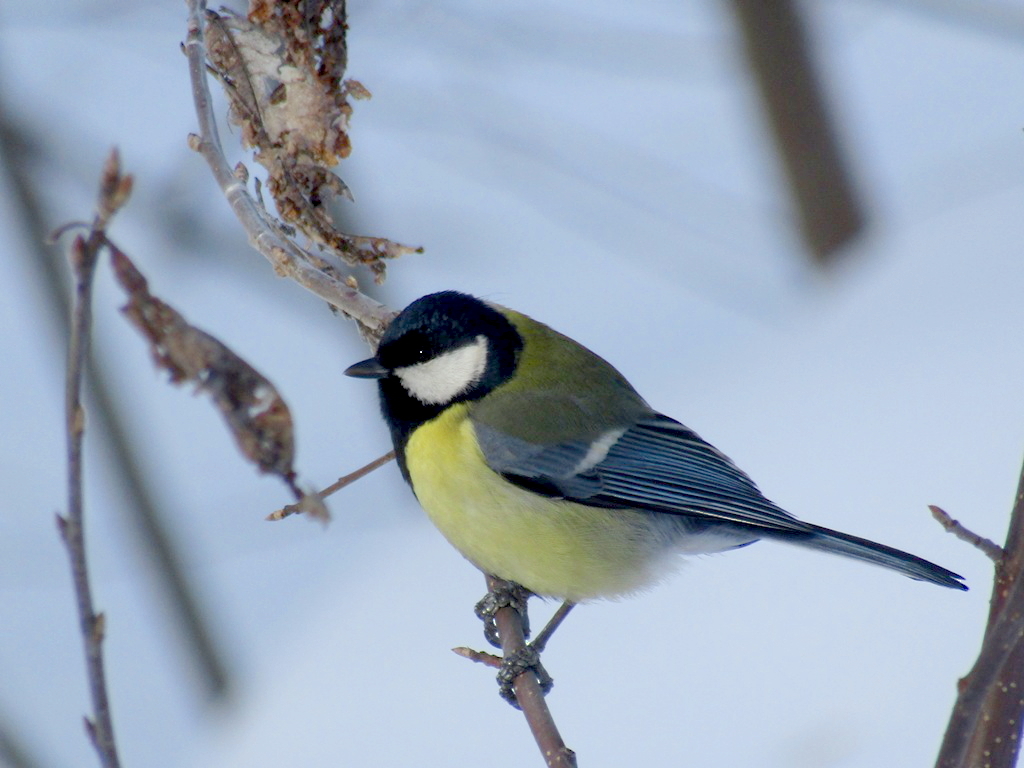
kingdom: Animalia
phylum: Chordata
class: Aves
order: Passeriformes
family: Paridae
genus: Parus
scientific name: Parus major
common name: Great tit
